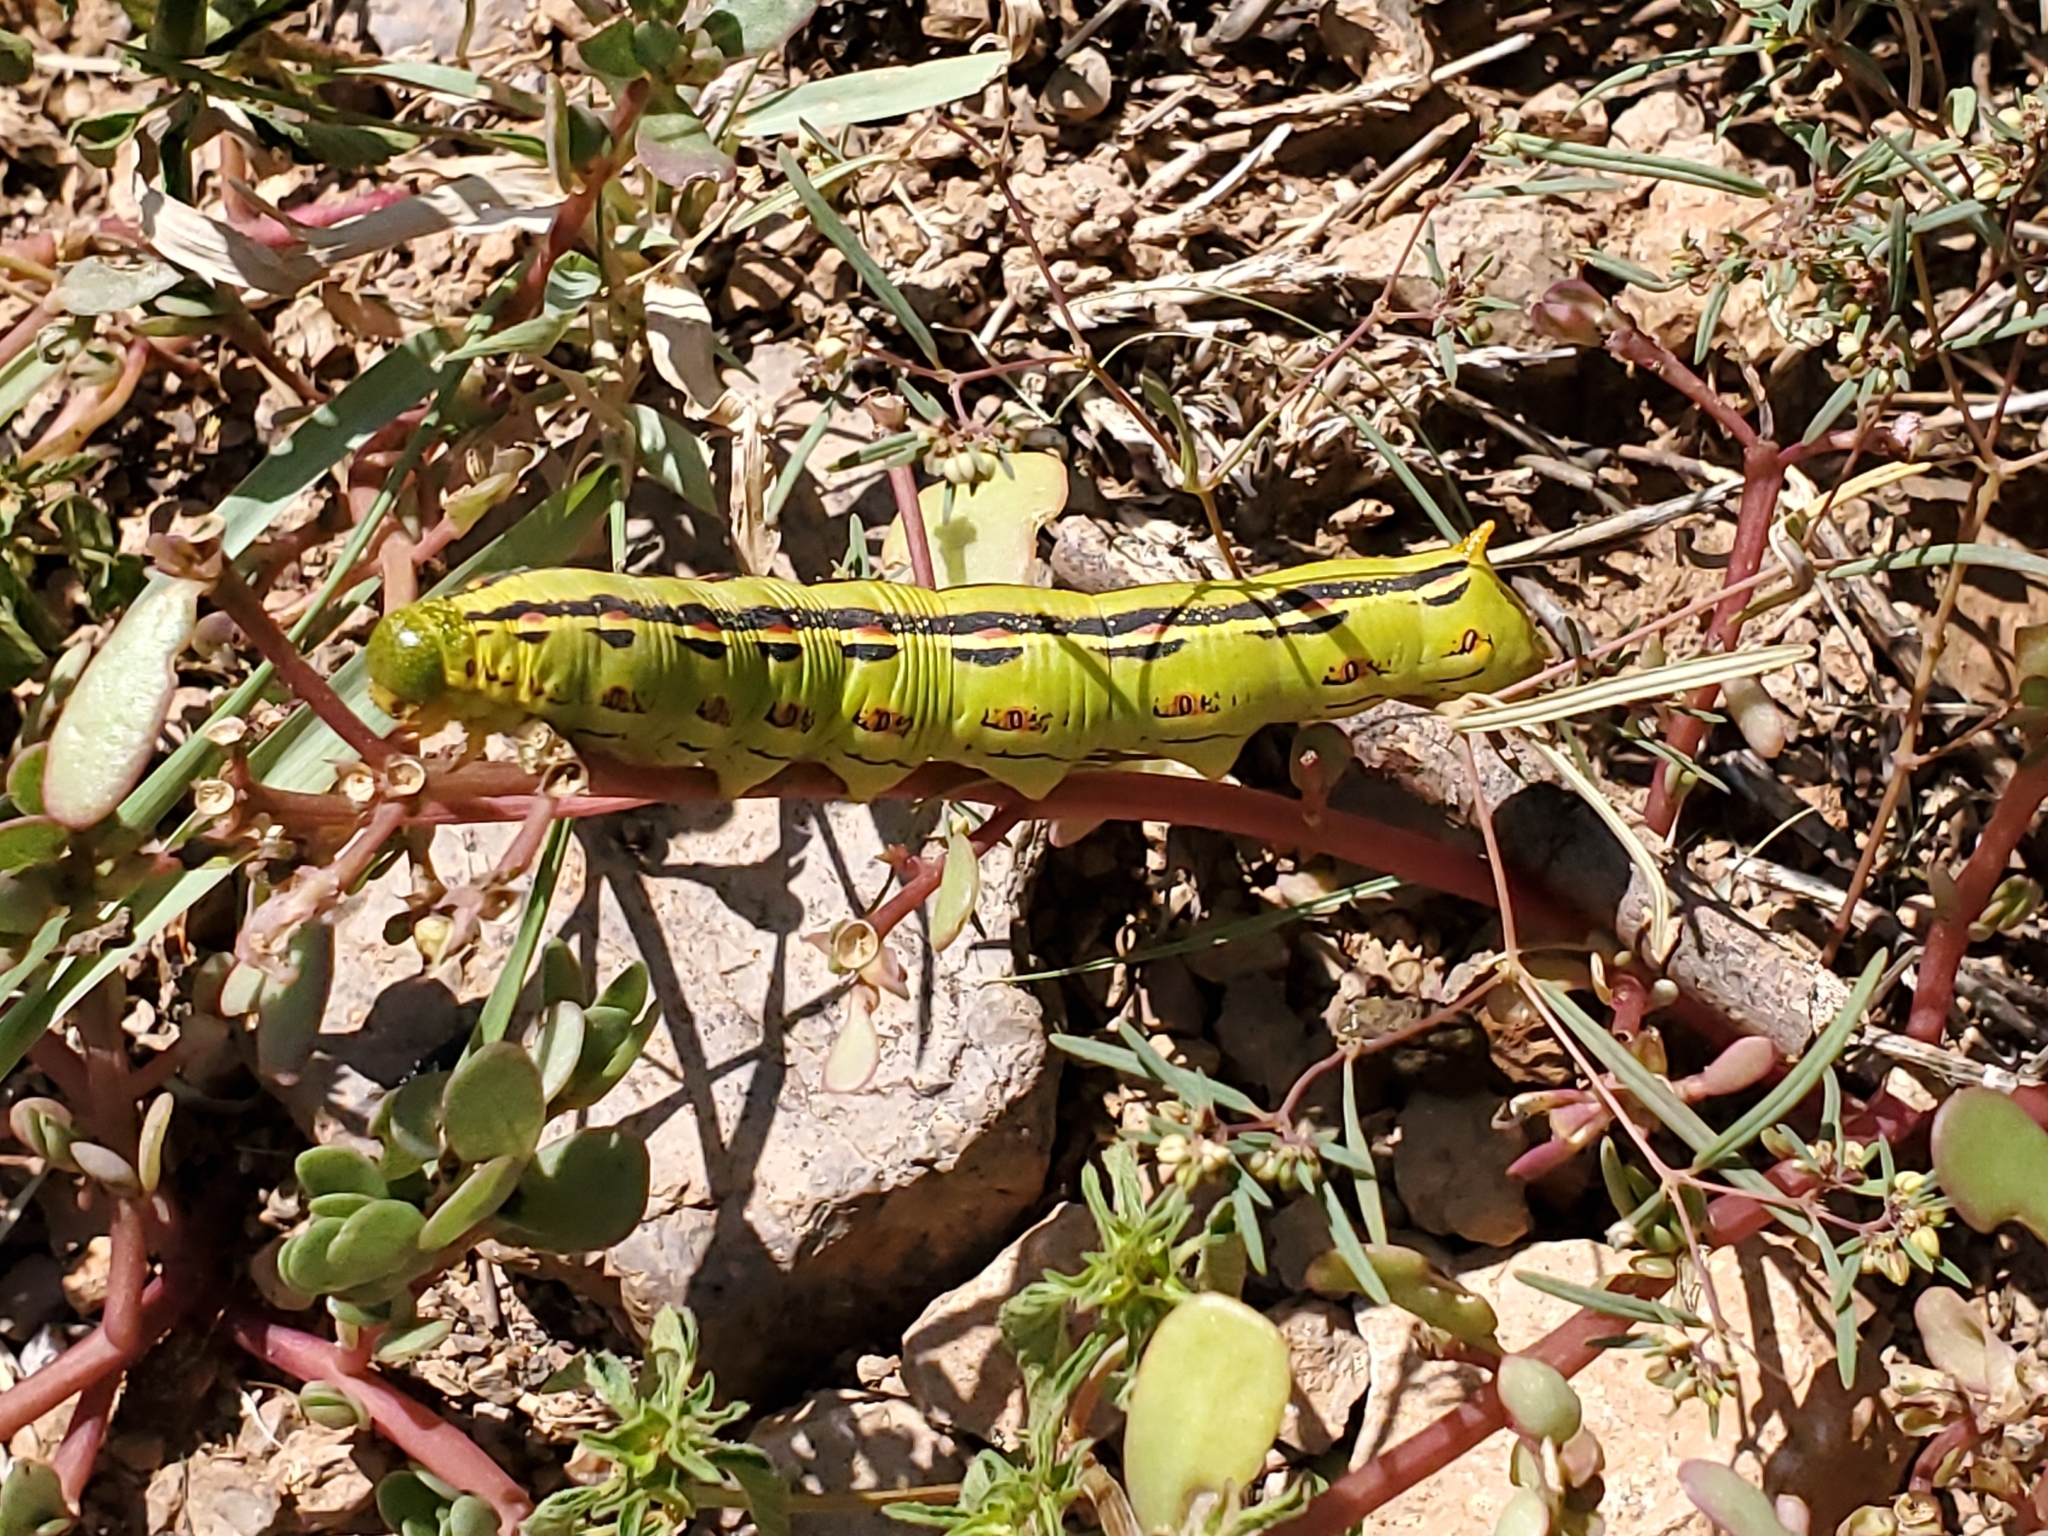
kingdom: Animalia
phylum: Arthropoda
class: Insecta
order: Lepidoptera
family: Sphingidae
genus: Hyles
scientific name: Hyles lineata
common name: White-lined sphinx
